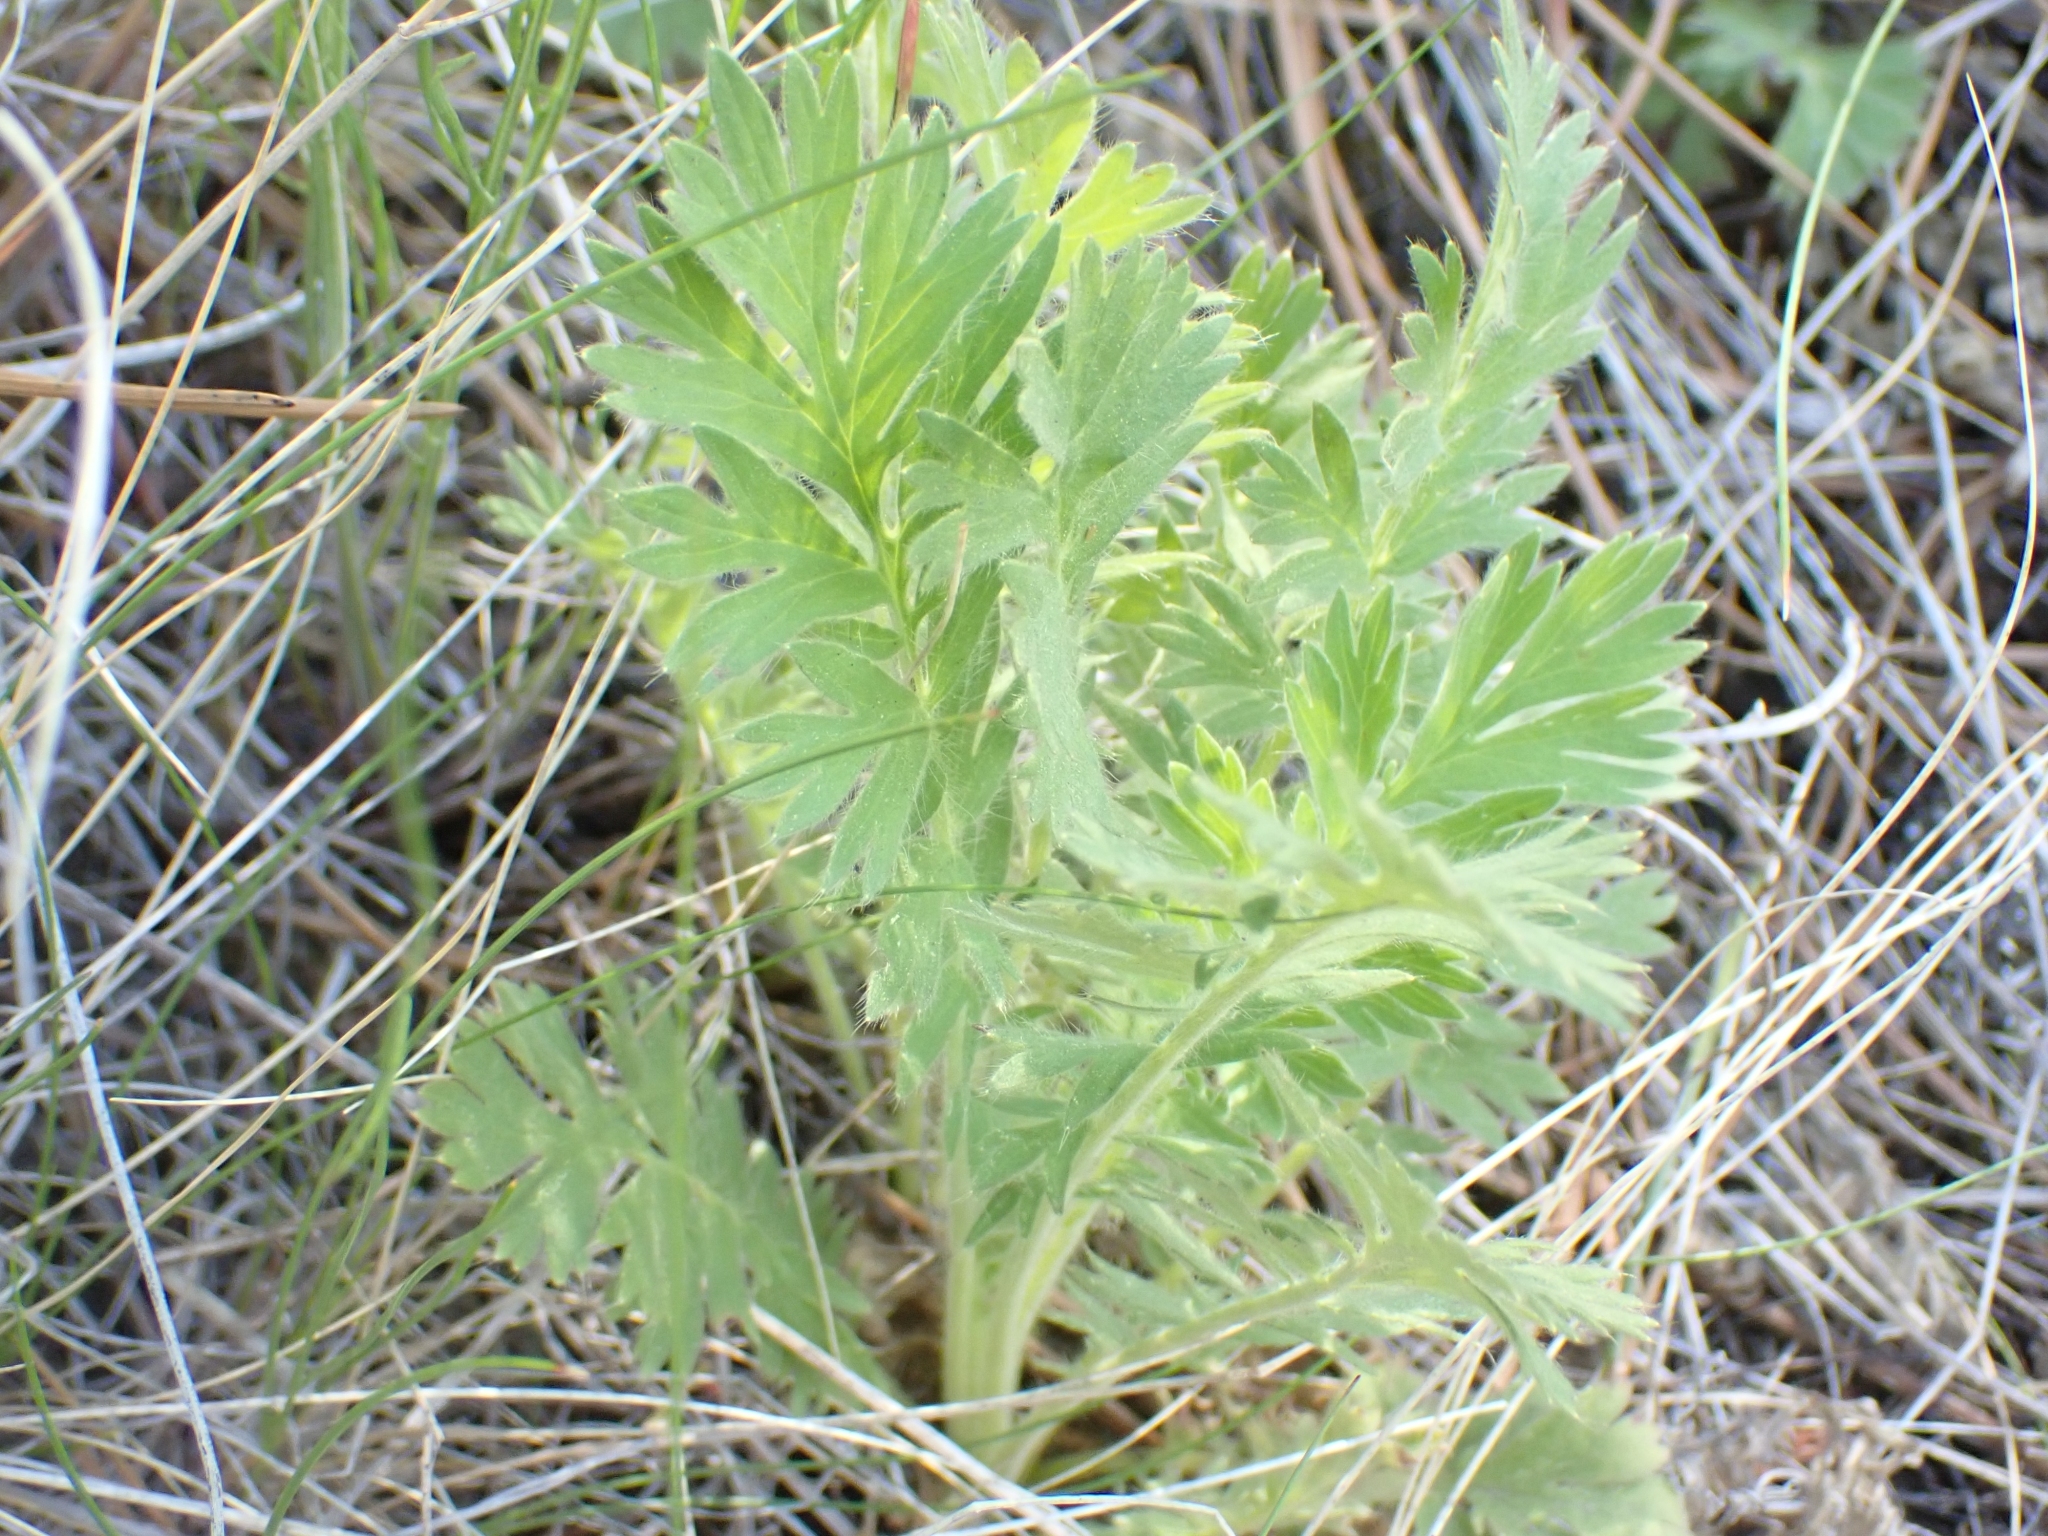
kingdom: Plantae
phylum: Tracheophyta
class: Magnoliopsida
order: Rosales
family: Rosaceae
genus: Geum
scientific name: Geum triflorum
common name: Old man's whiskers
